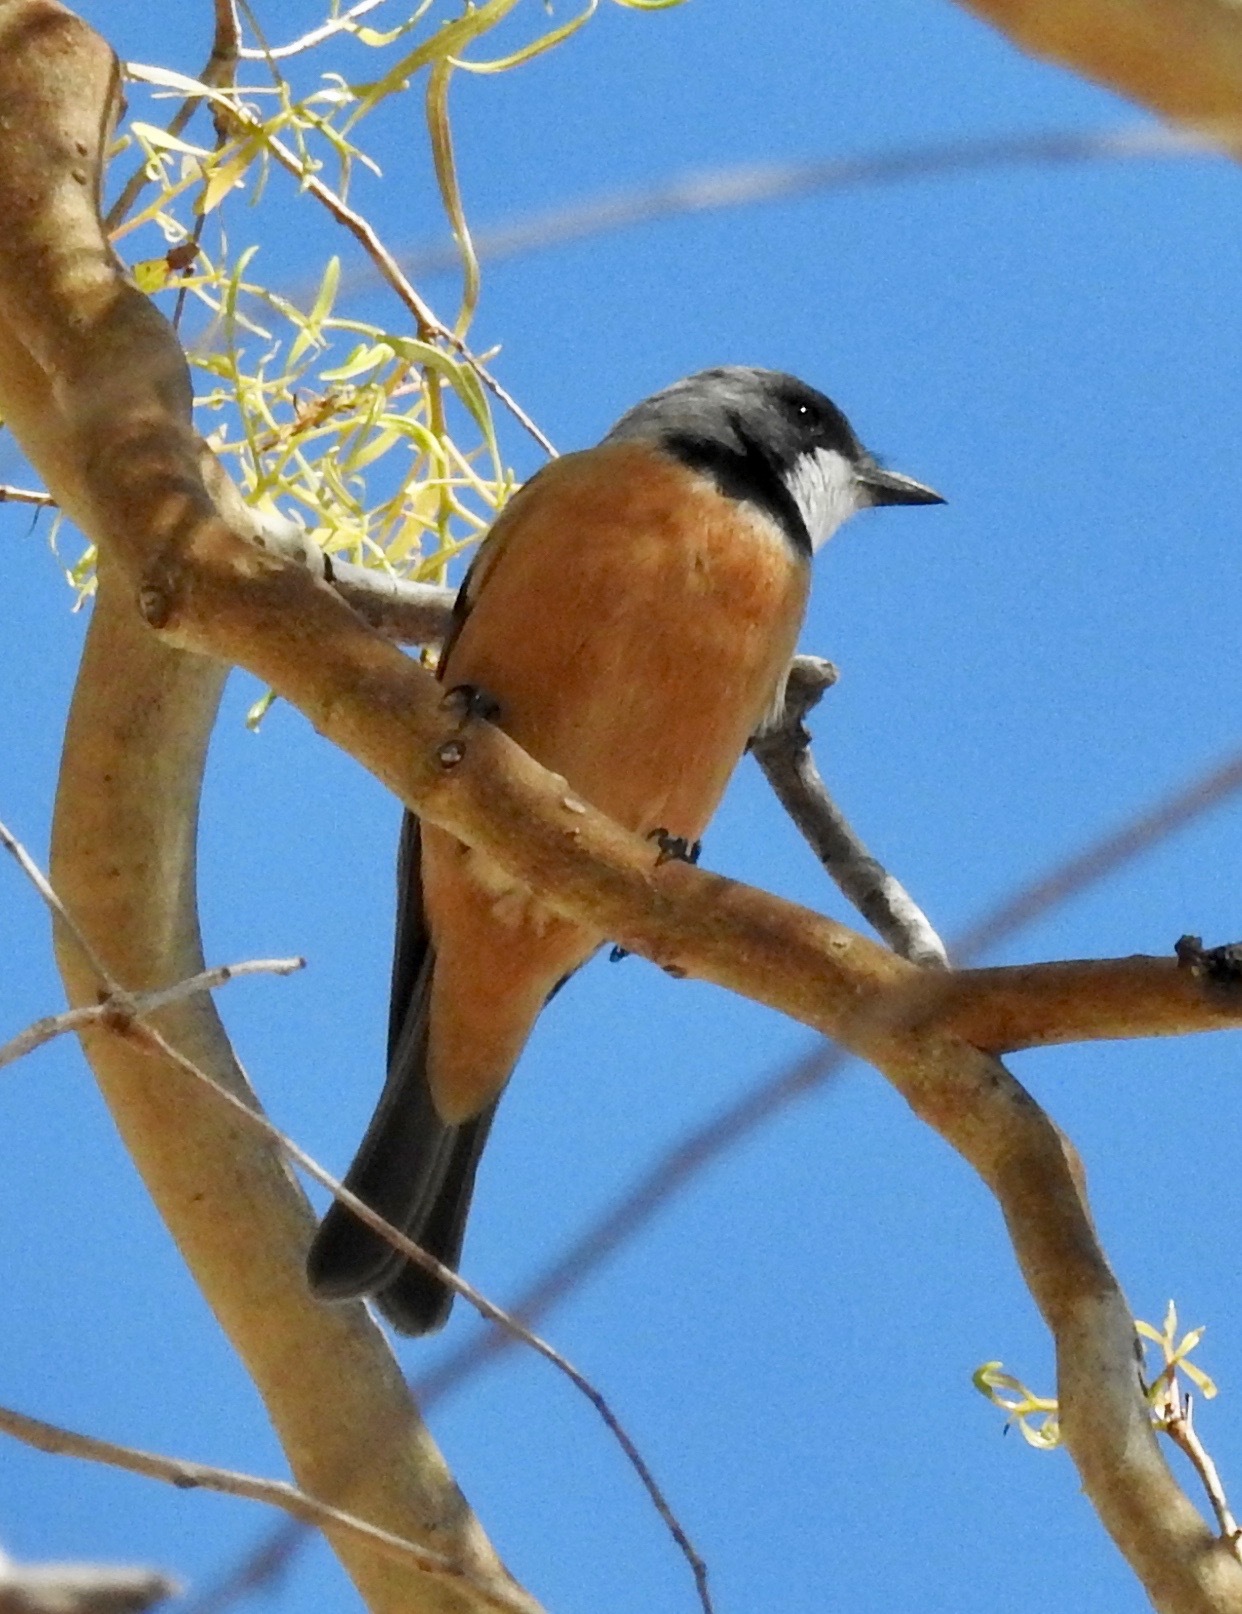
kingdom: Animalia
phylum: Chordata
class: Aves
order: Passeriformes
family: Pachycephalidae
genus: Pachycephala
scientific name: Pachycephala rufiventris
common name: Rufous whistler
